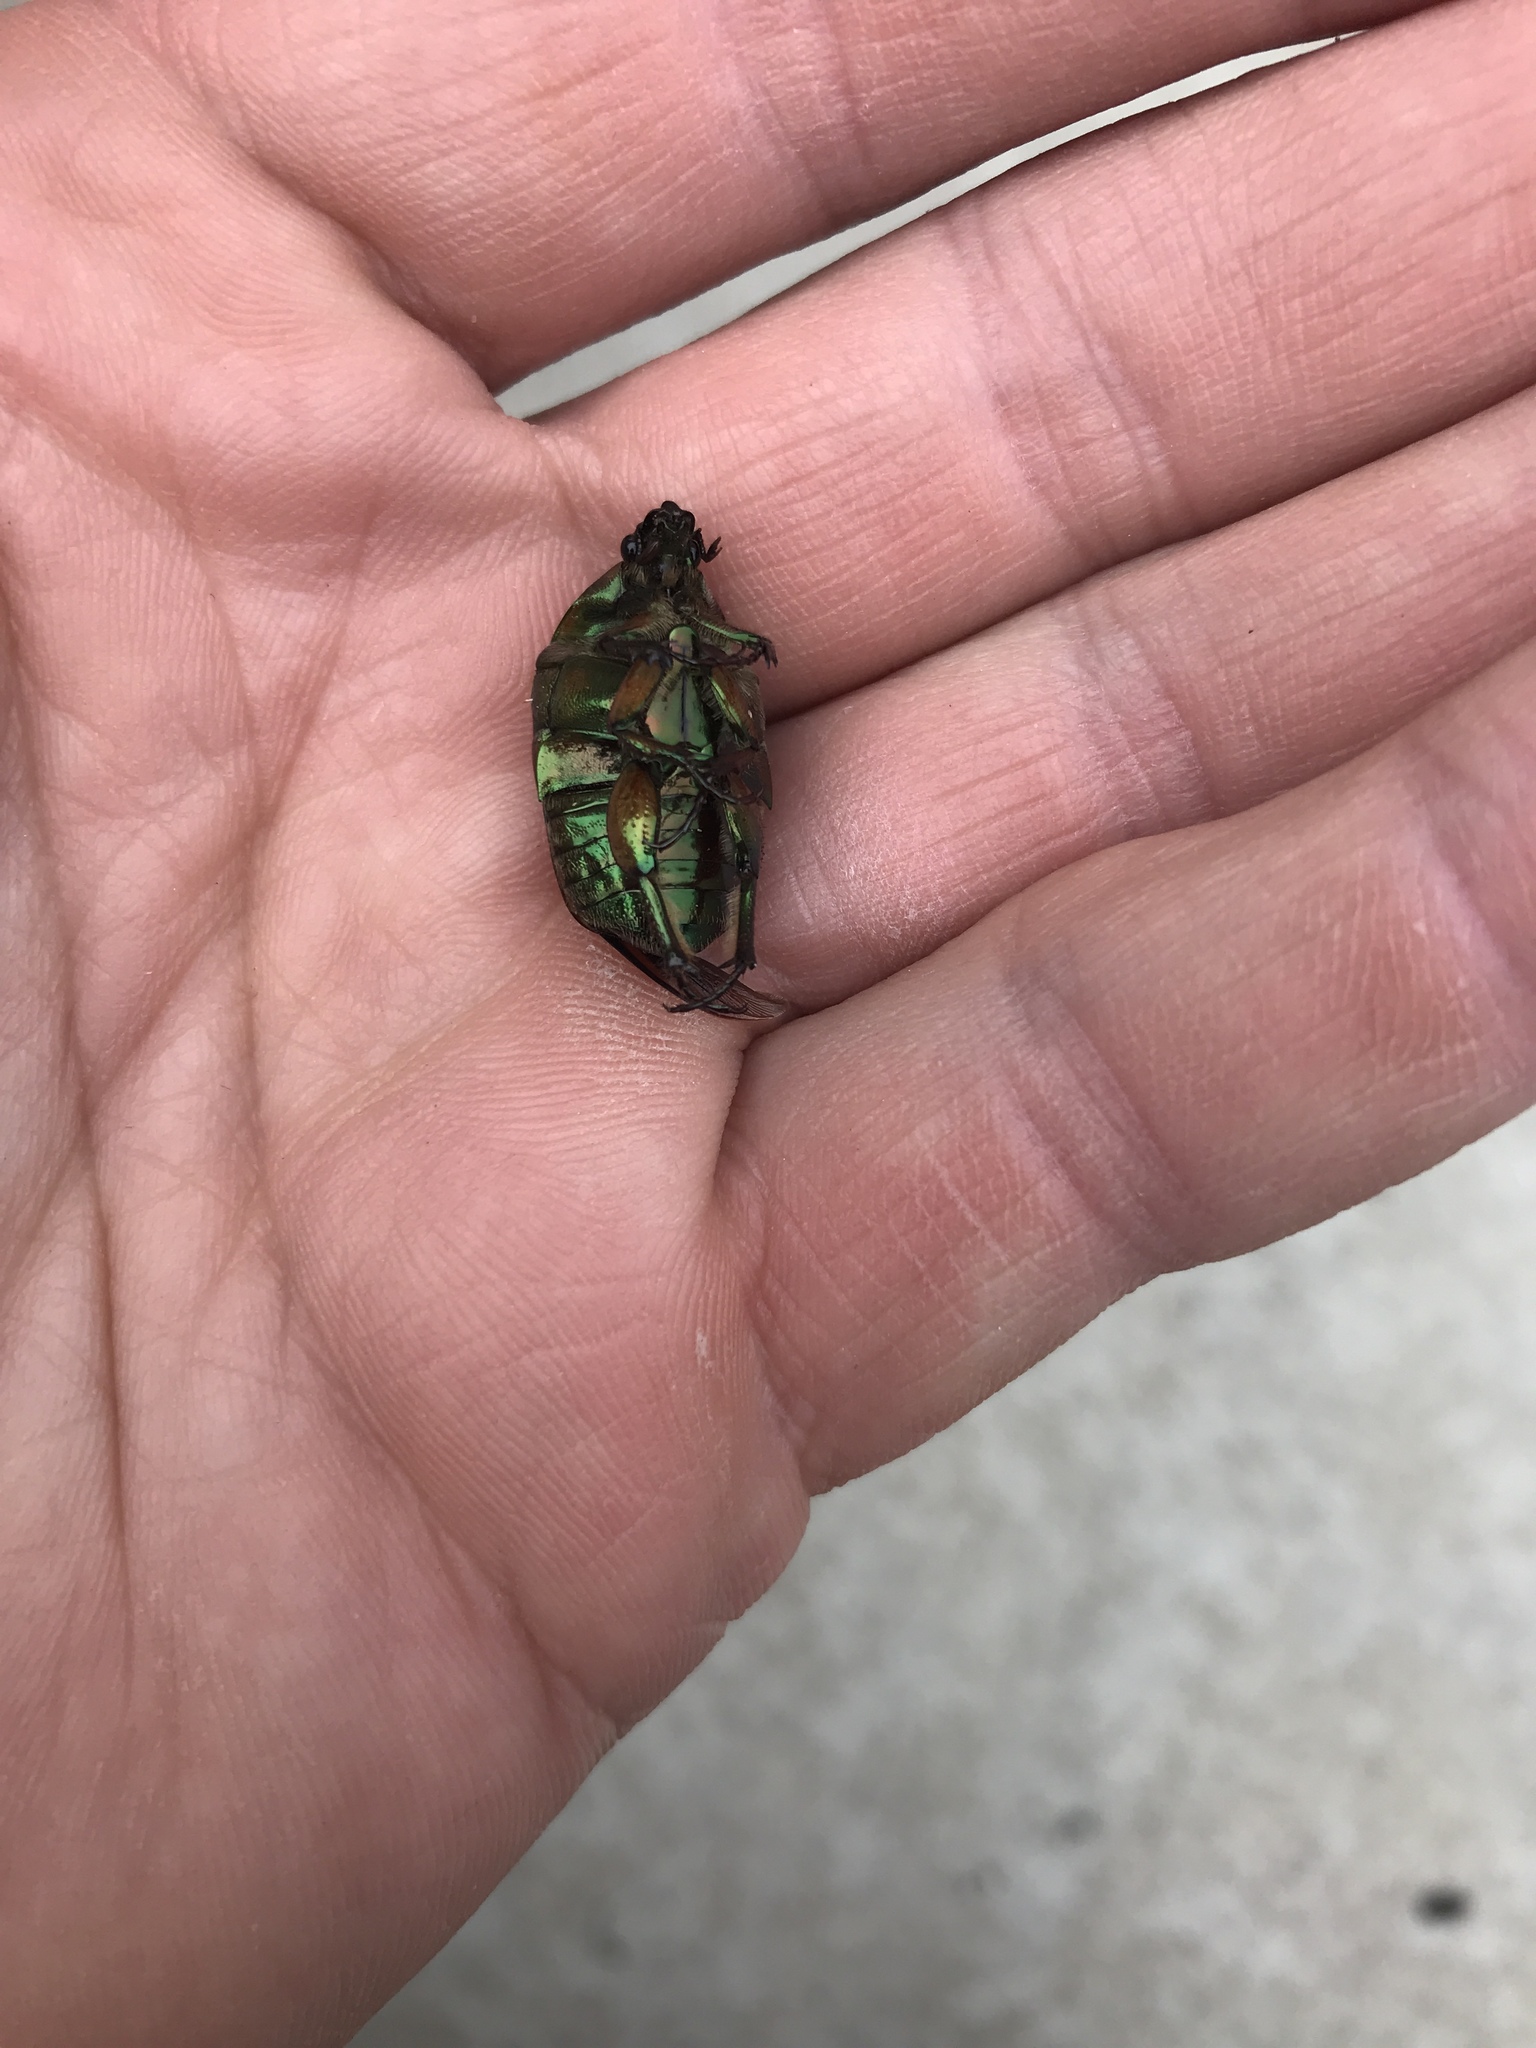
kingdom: Animalia
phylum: Arthropoda
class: Insecta
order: Coleoptera
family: Scarabaeidae
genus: Cotinis
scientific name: Cotinis nitida
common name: Common green june beetle
